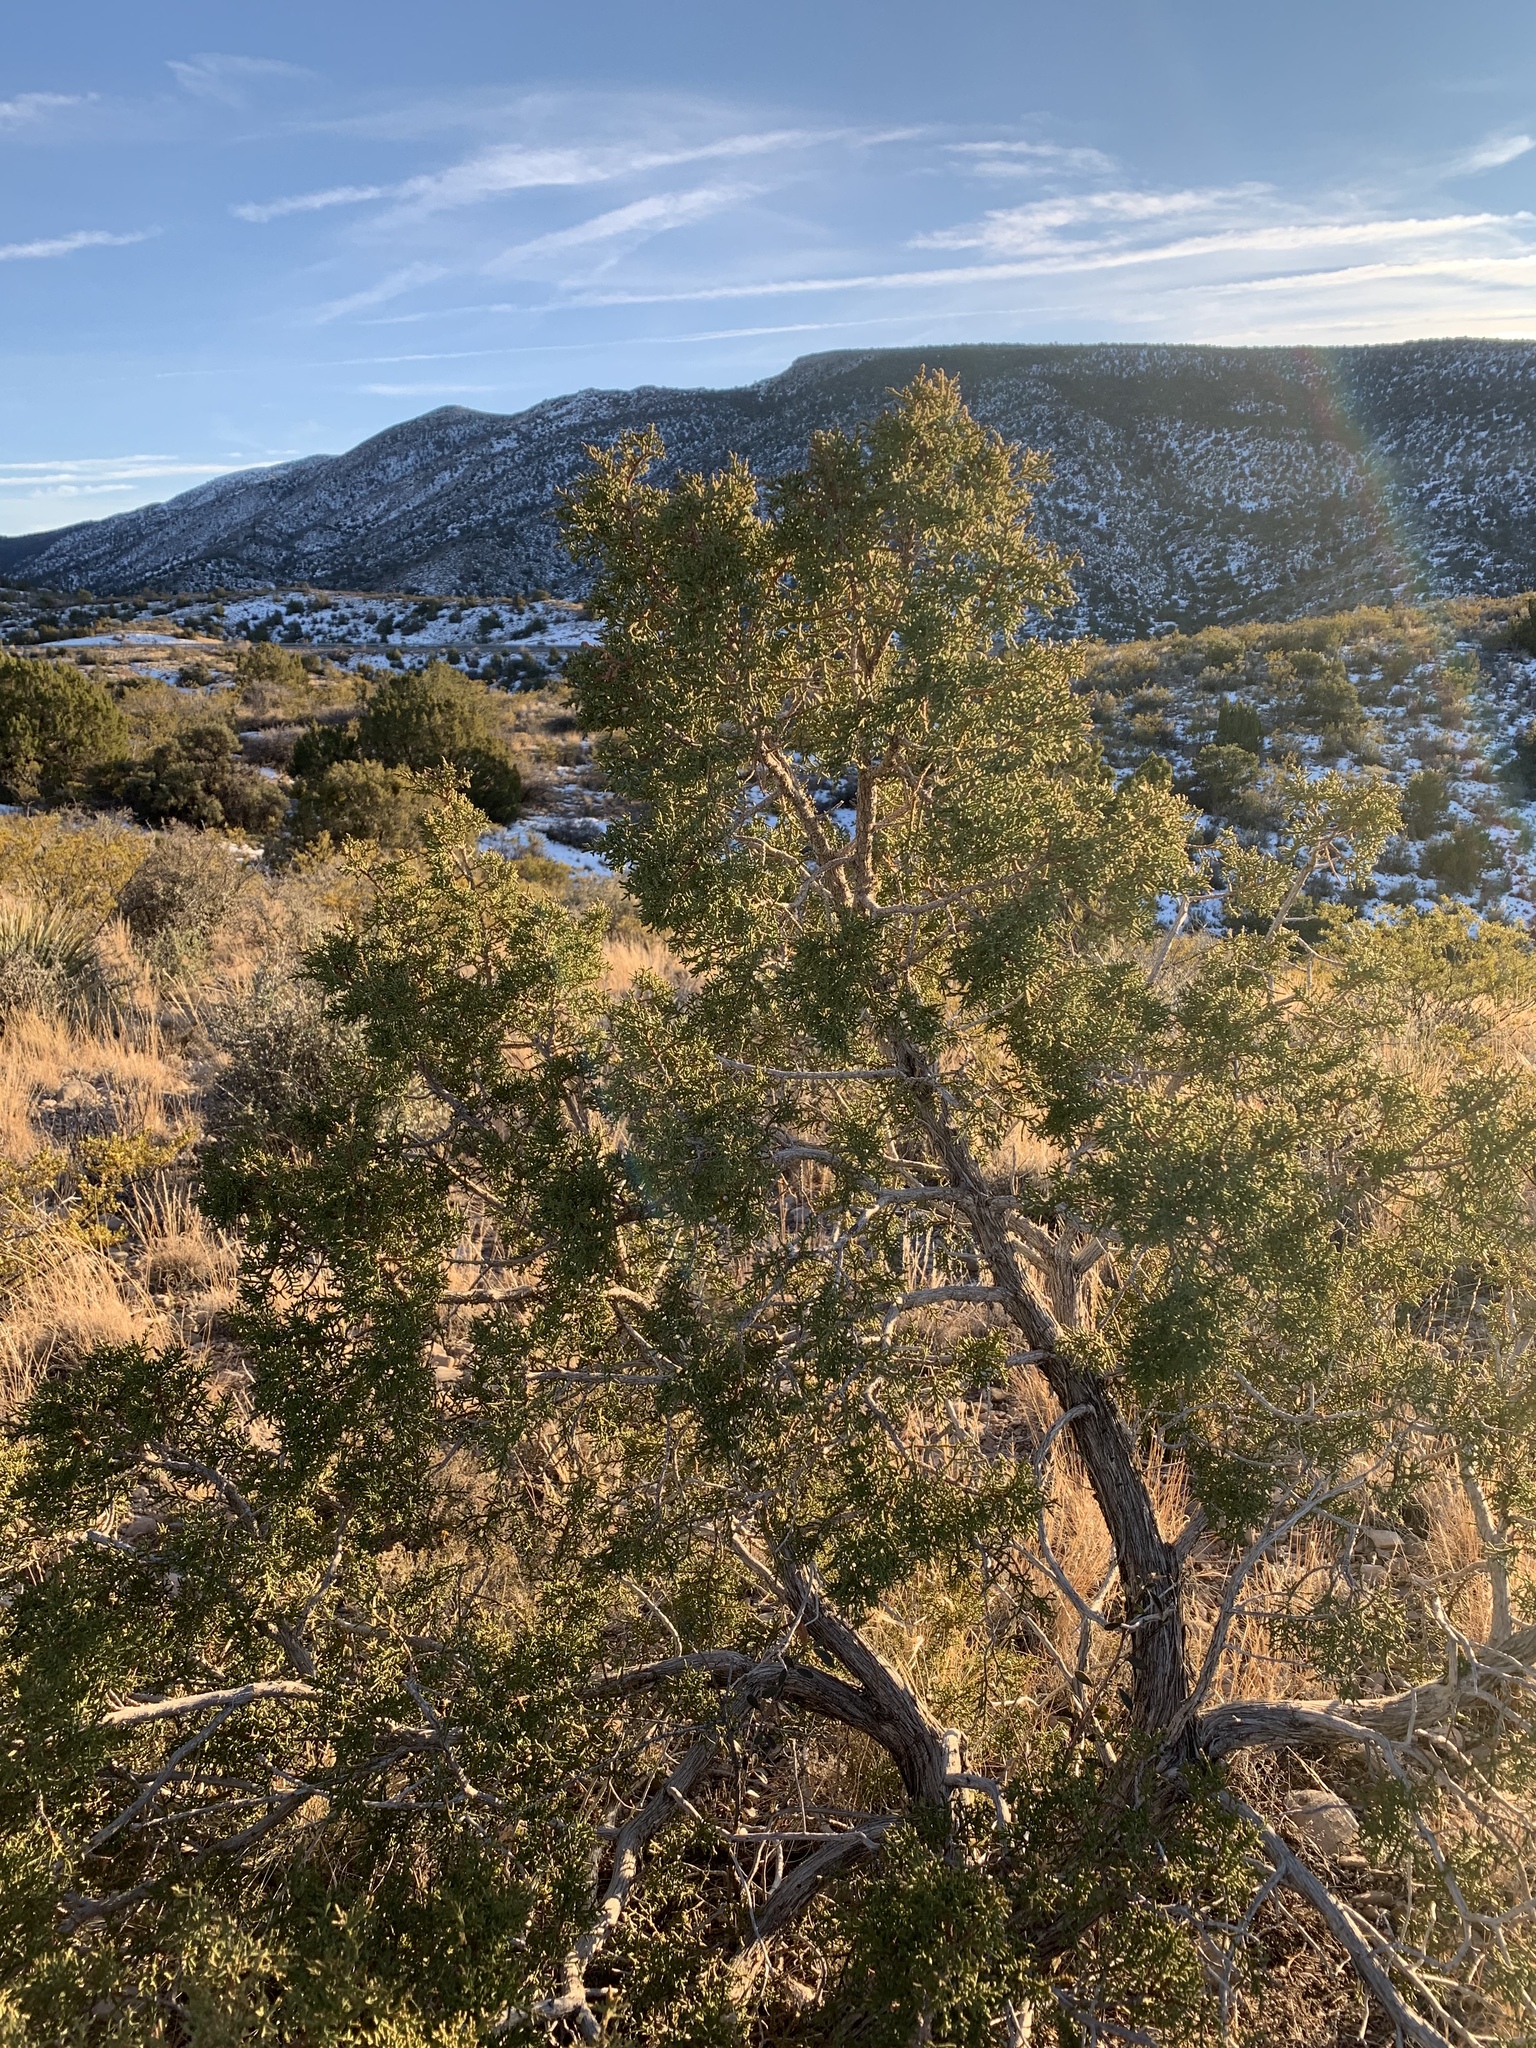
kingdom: Plantae
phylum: Tracheophyta
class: Pinopsida
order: Pinales
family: Cupressaceae
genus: Juniperus
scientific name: Juniperus monosperma
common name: One-seed juniper
